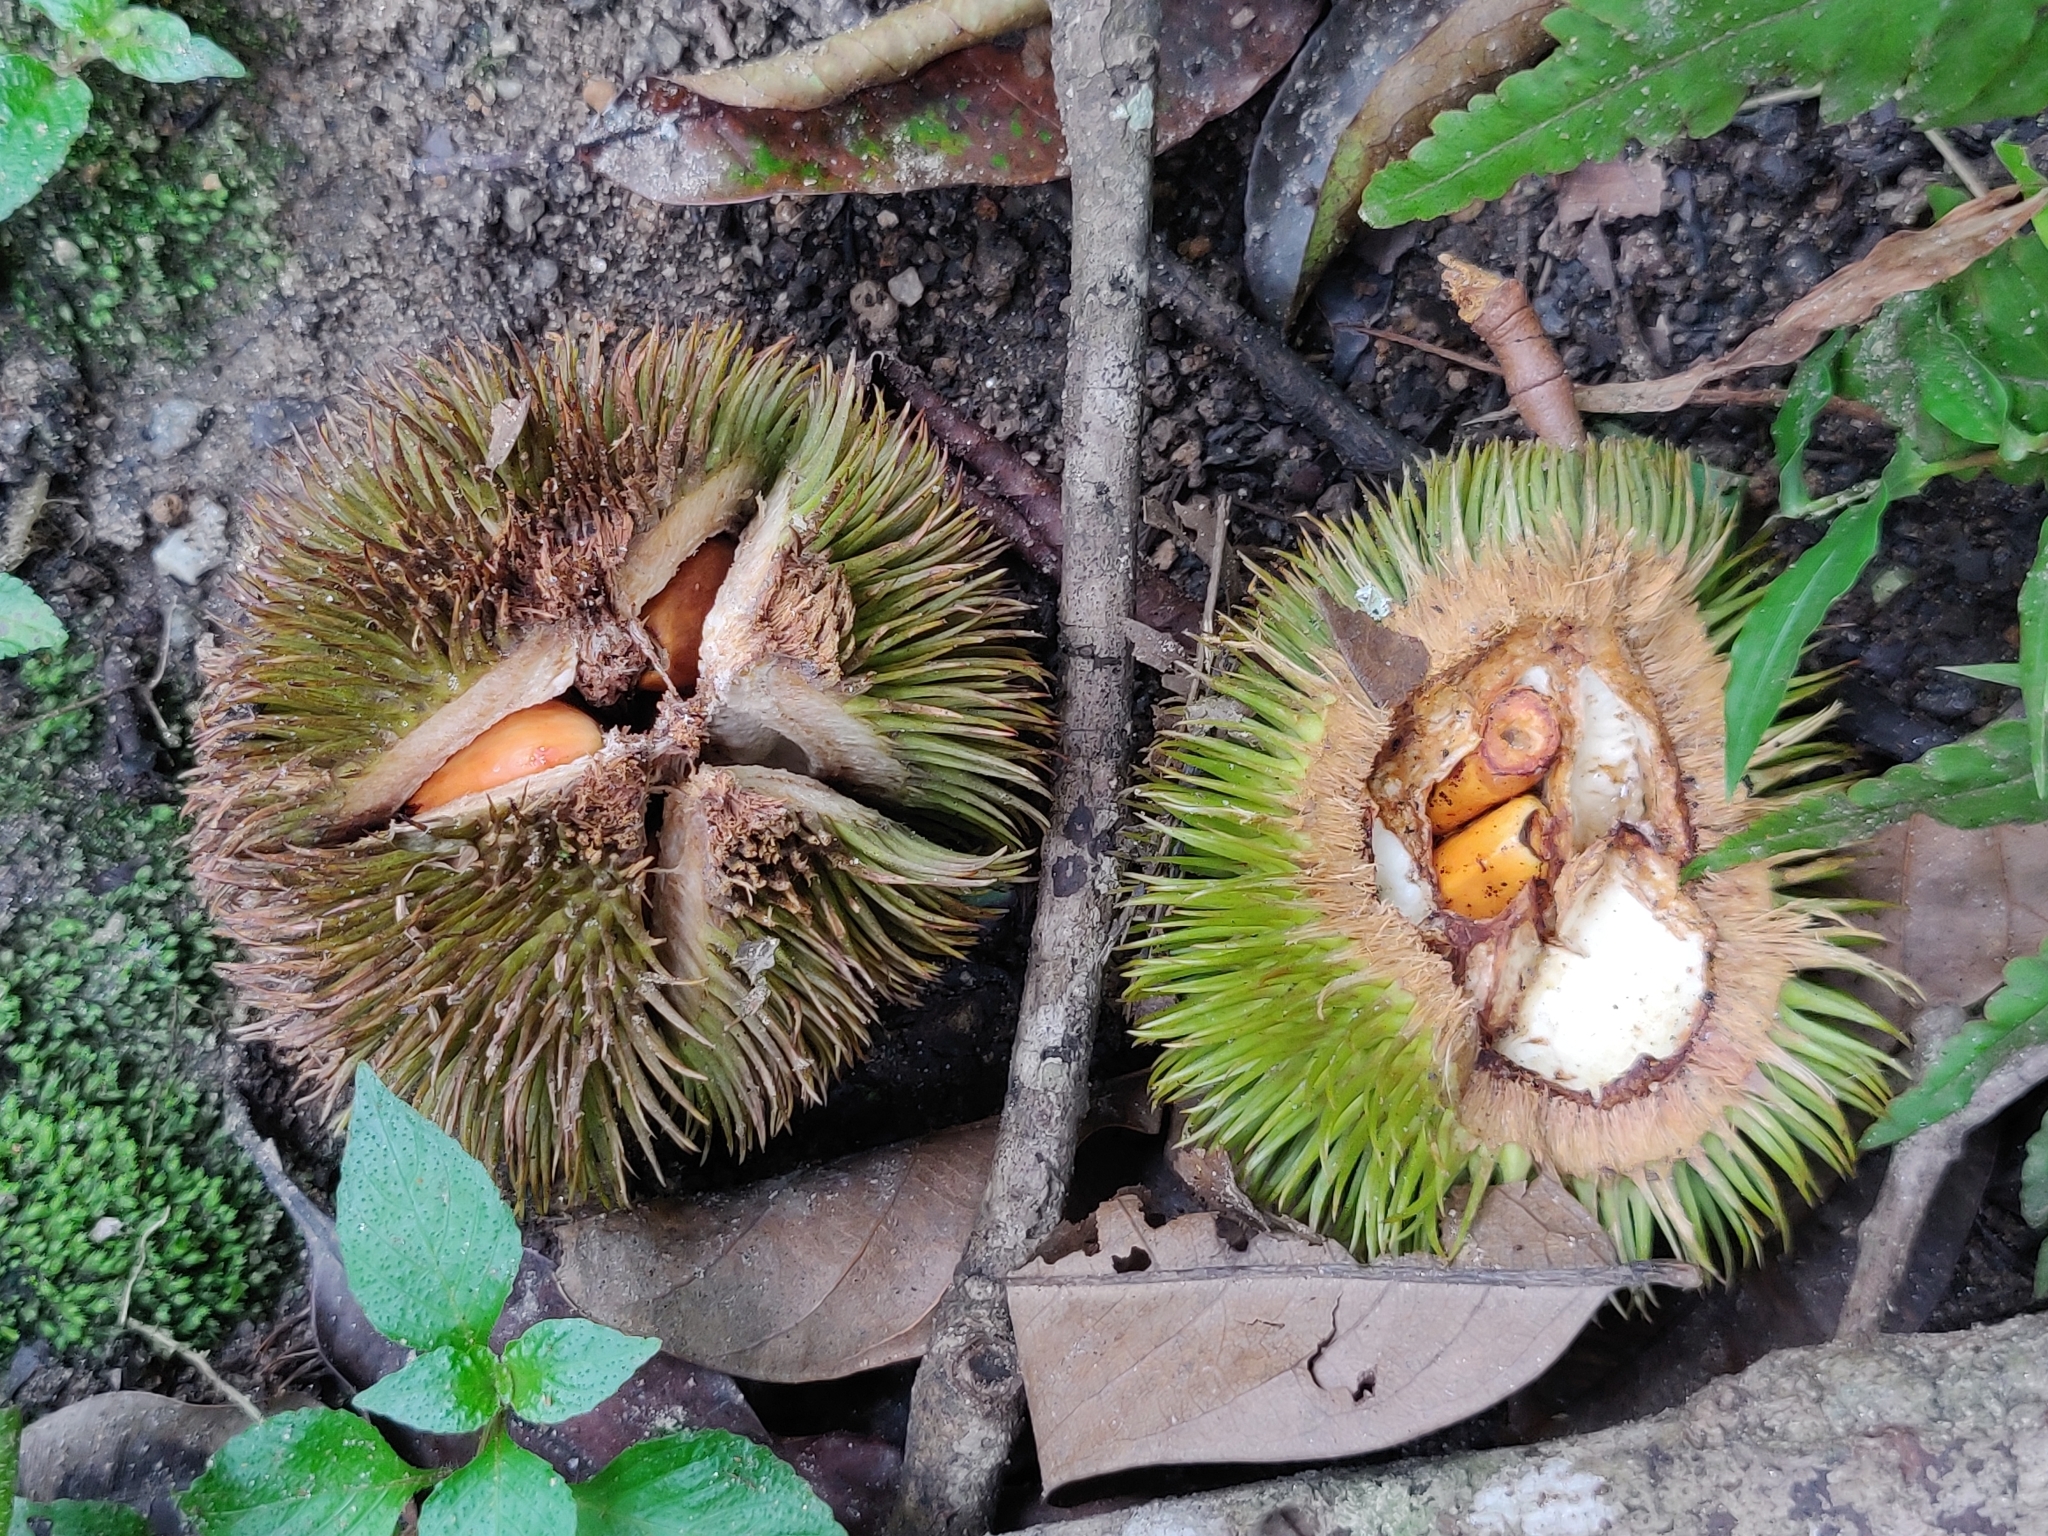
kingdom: Plantae
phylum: Tracheophyta
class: Magnoliopsida
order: Malvales
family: Malvaceae
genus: Cullenia
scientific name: Cullenia exarillata
